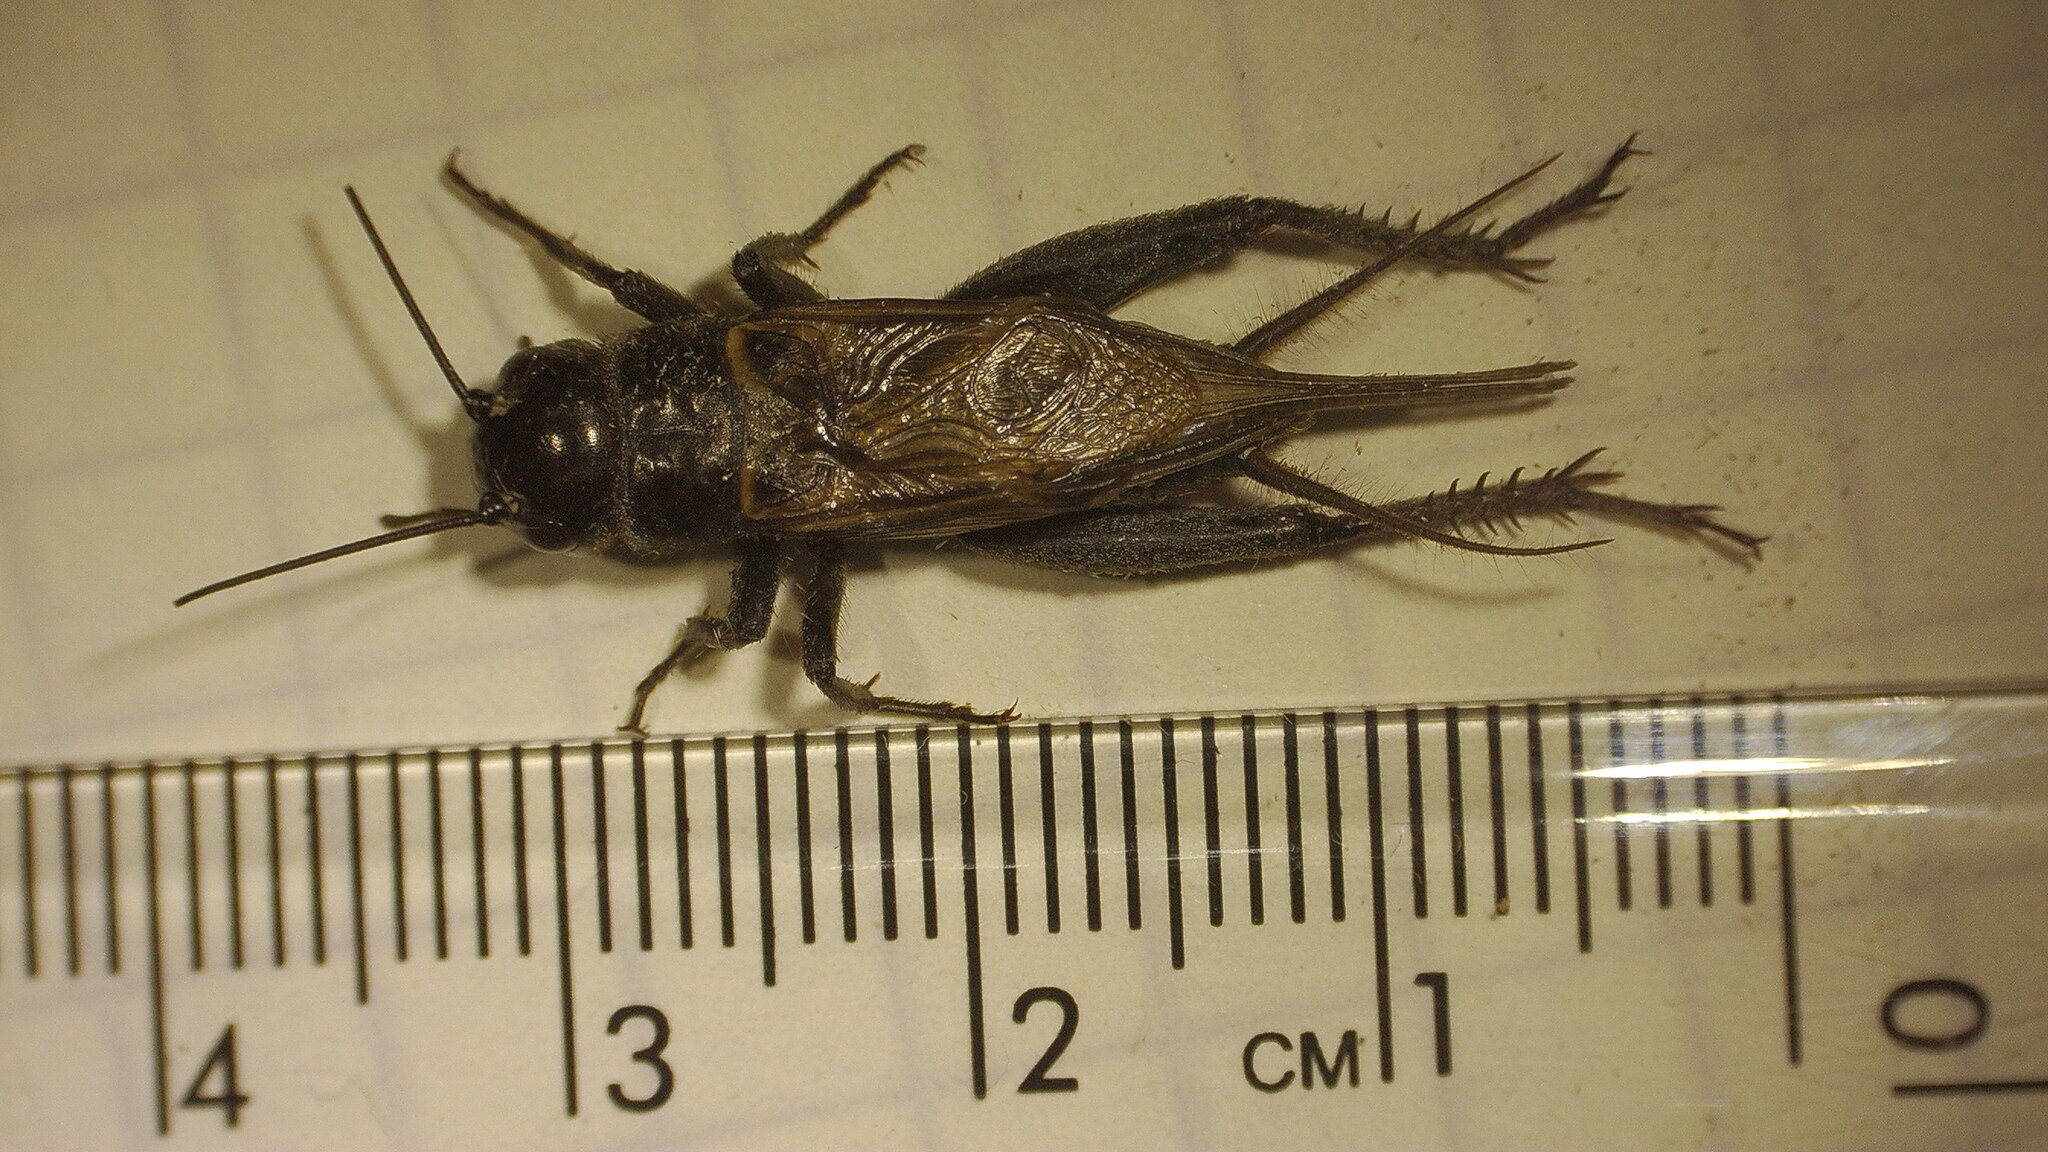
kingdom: Animalia
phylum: Arthropoda
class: Insecta
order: Orthoptera
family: Gryllidae
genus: Gryllus
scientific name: Gryllus
